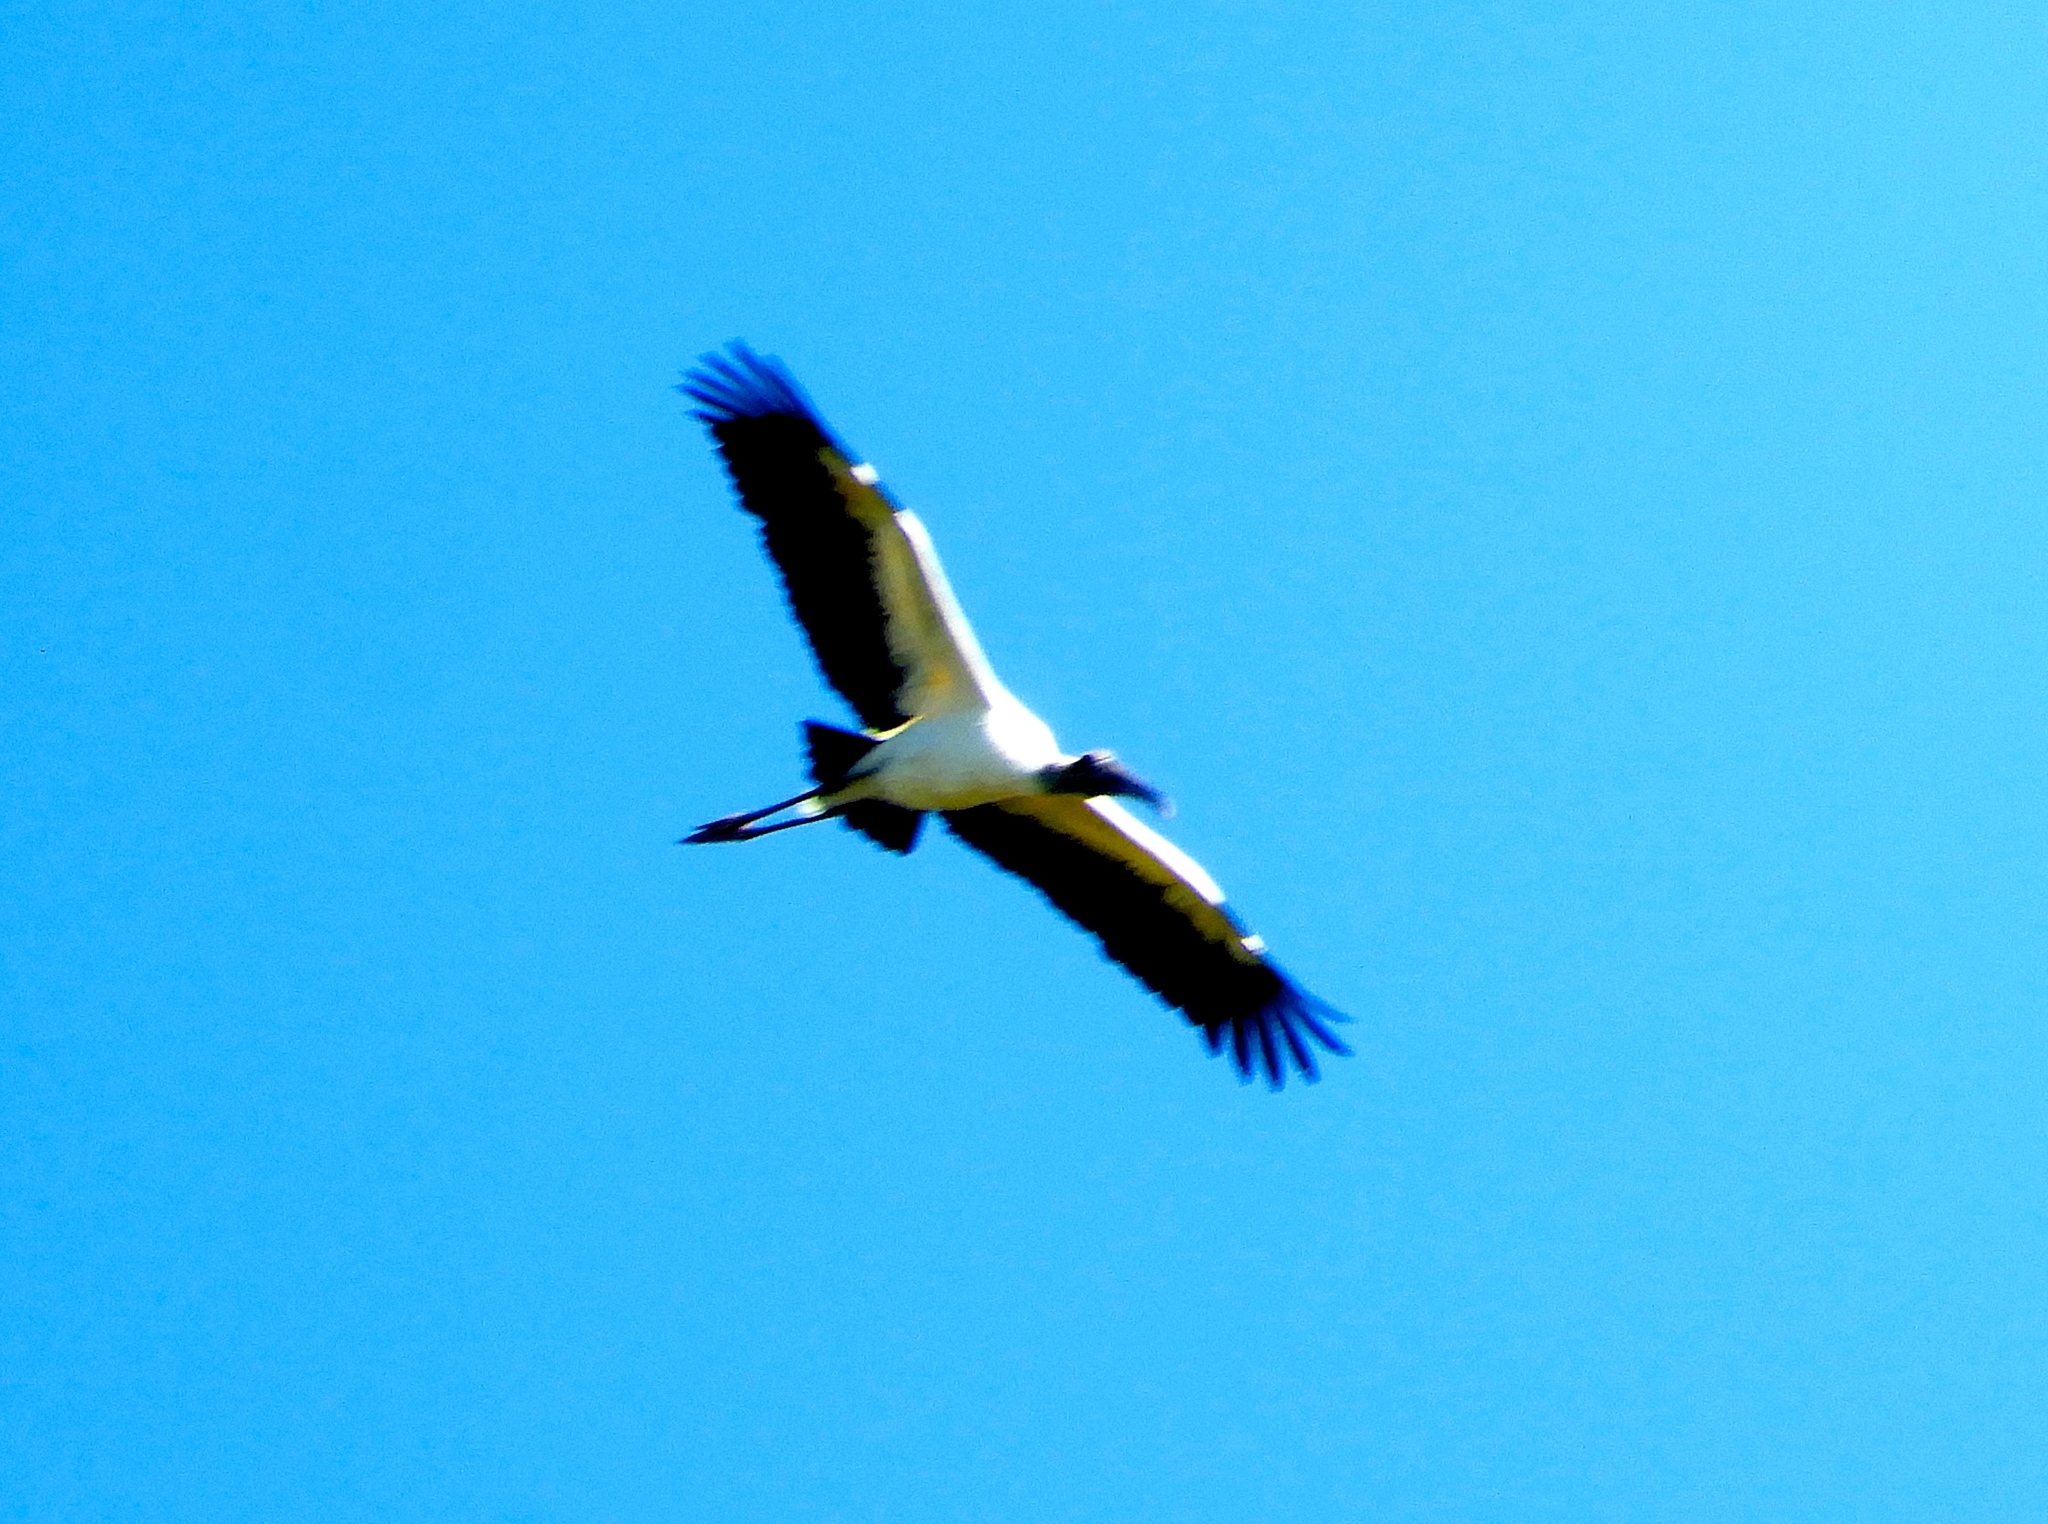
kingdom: Animalia
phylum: Chordata
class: Aves
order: Ciconiiformes
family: Ciconiidae
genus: Mycteria
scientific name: Mycteria americana
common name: Wood stork
